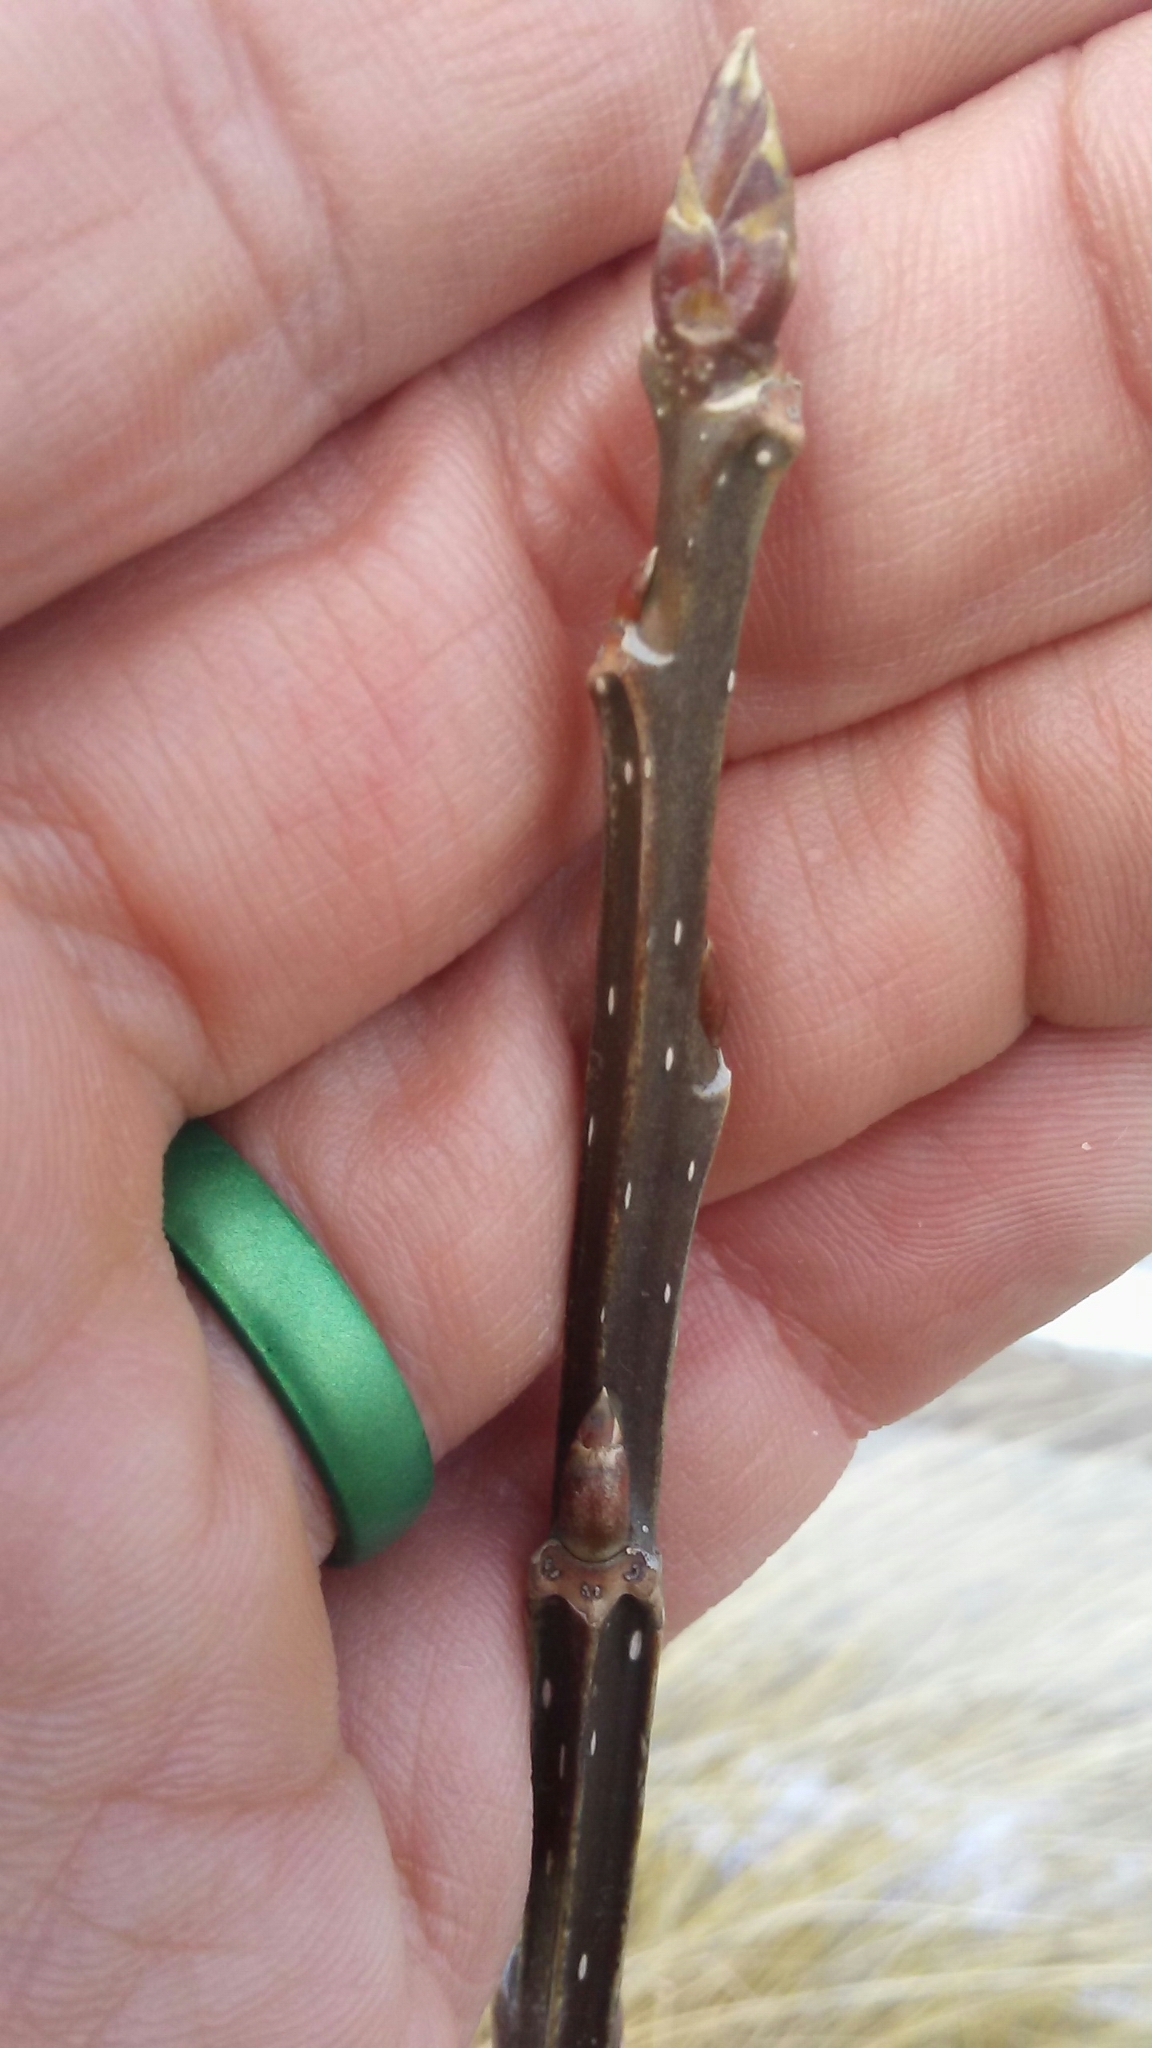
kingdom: Plantae
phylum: Tracheophyta
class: Magnoliopsida
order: Malpighiales
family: Salicaceae
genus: Populus
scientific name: Populus deltoides
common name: Eastern cottonwood
